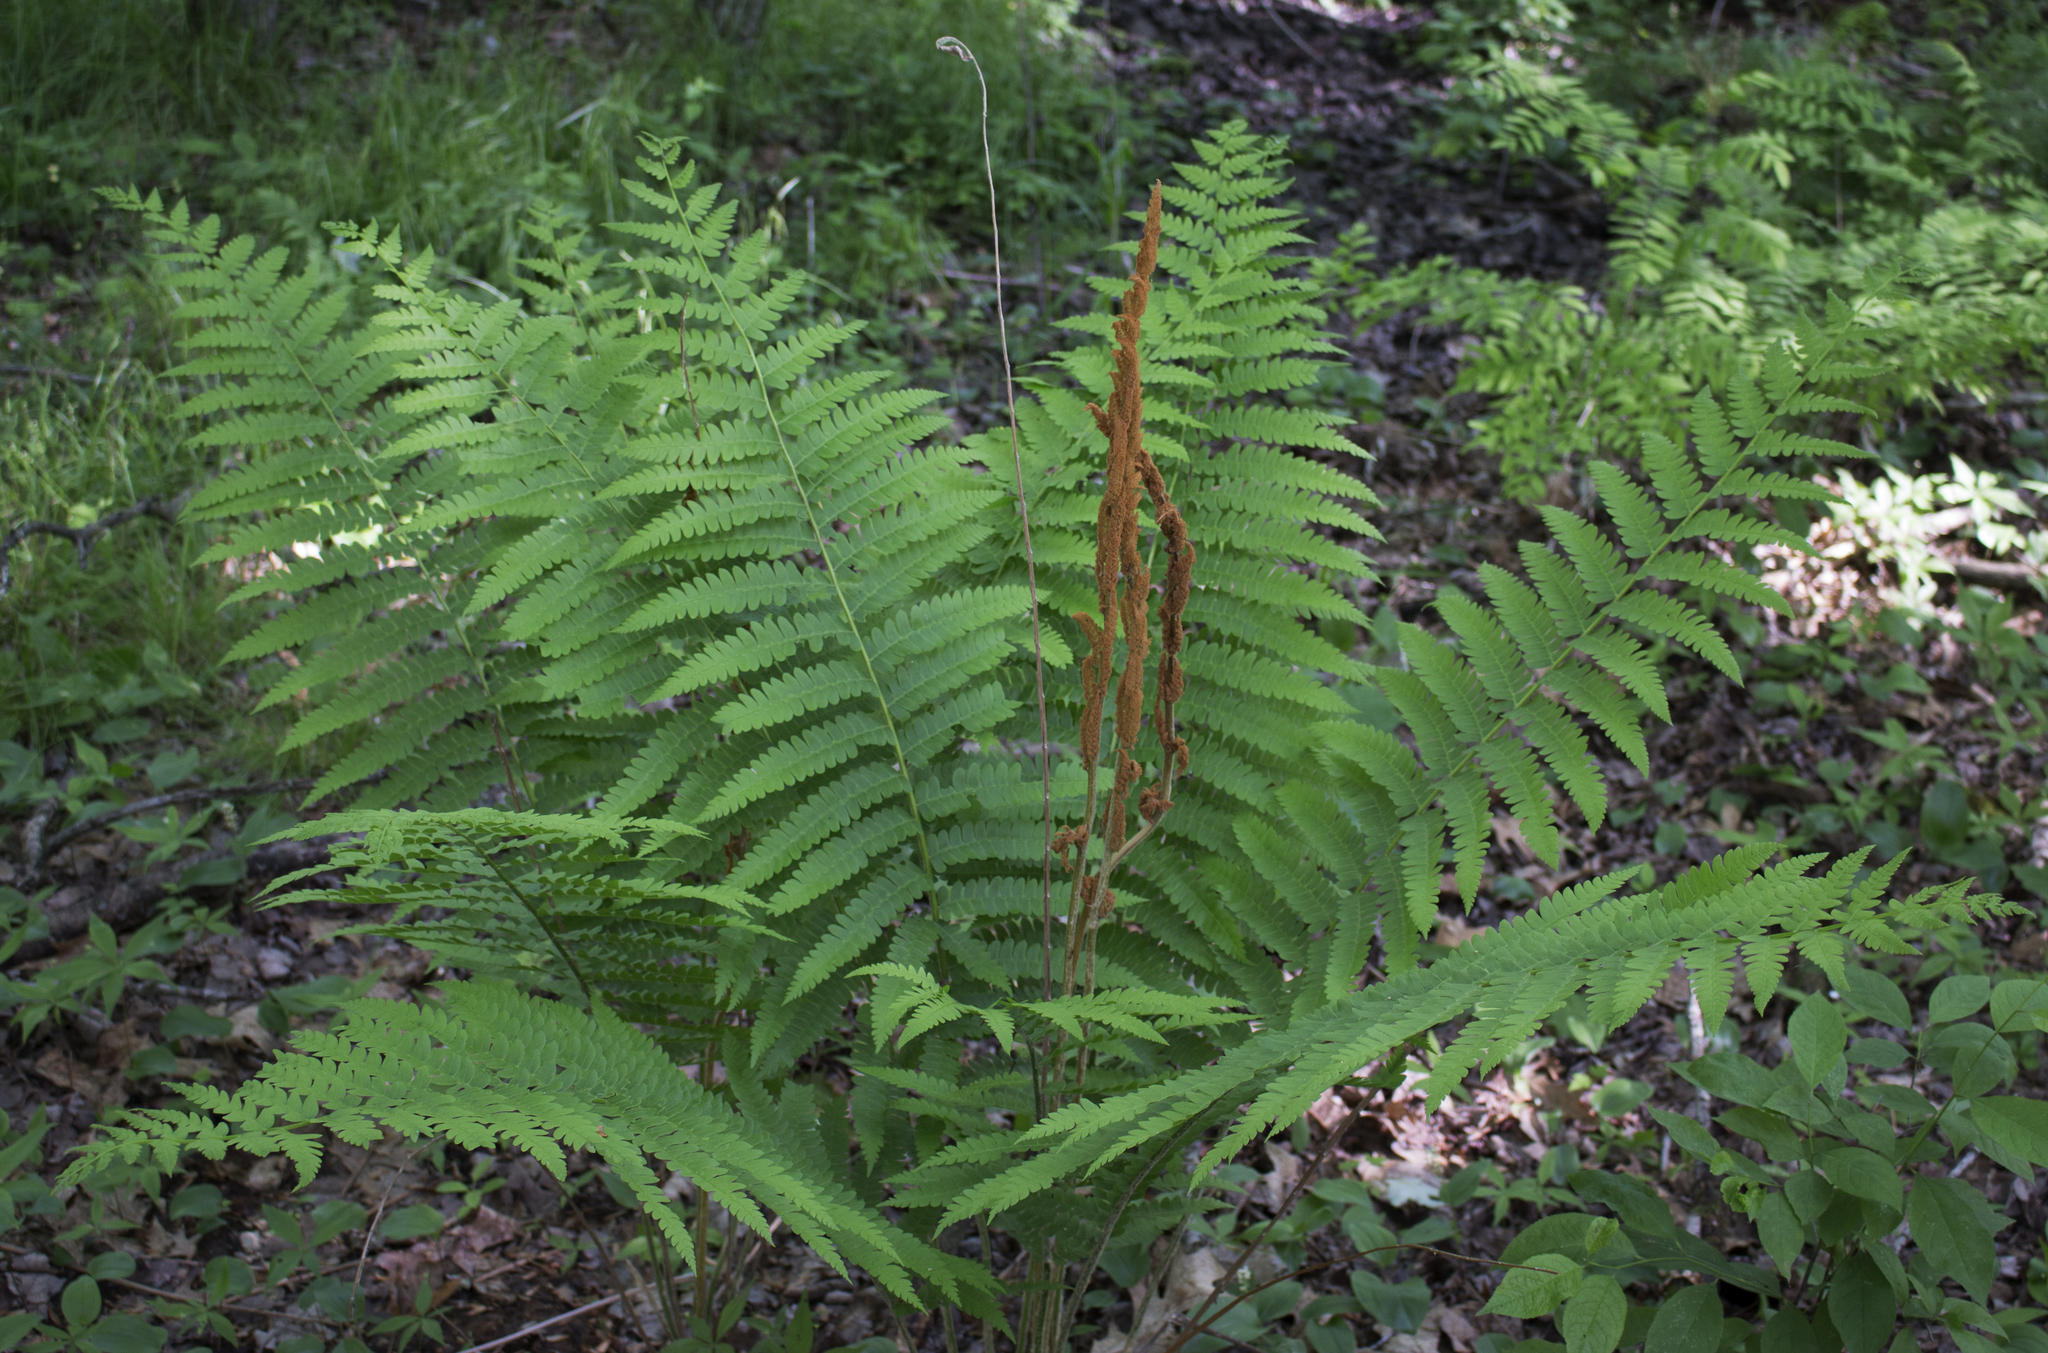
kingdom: Plantae
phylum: Tracheophyta
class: Polypodiopsida
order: Osmundales
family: Osmundaceae
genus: Osmundastrum
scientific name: Osmundastrum cinnamomeum
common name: Cinnamon fern
